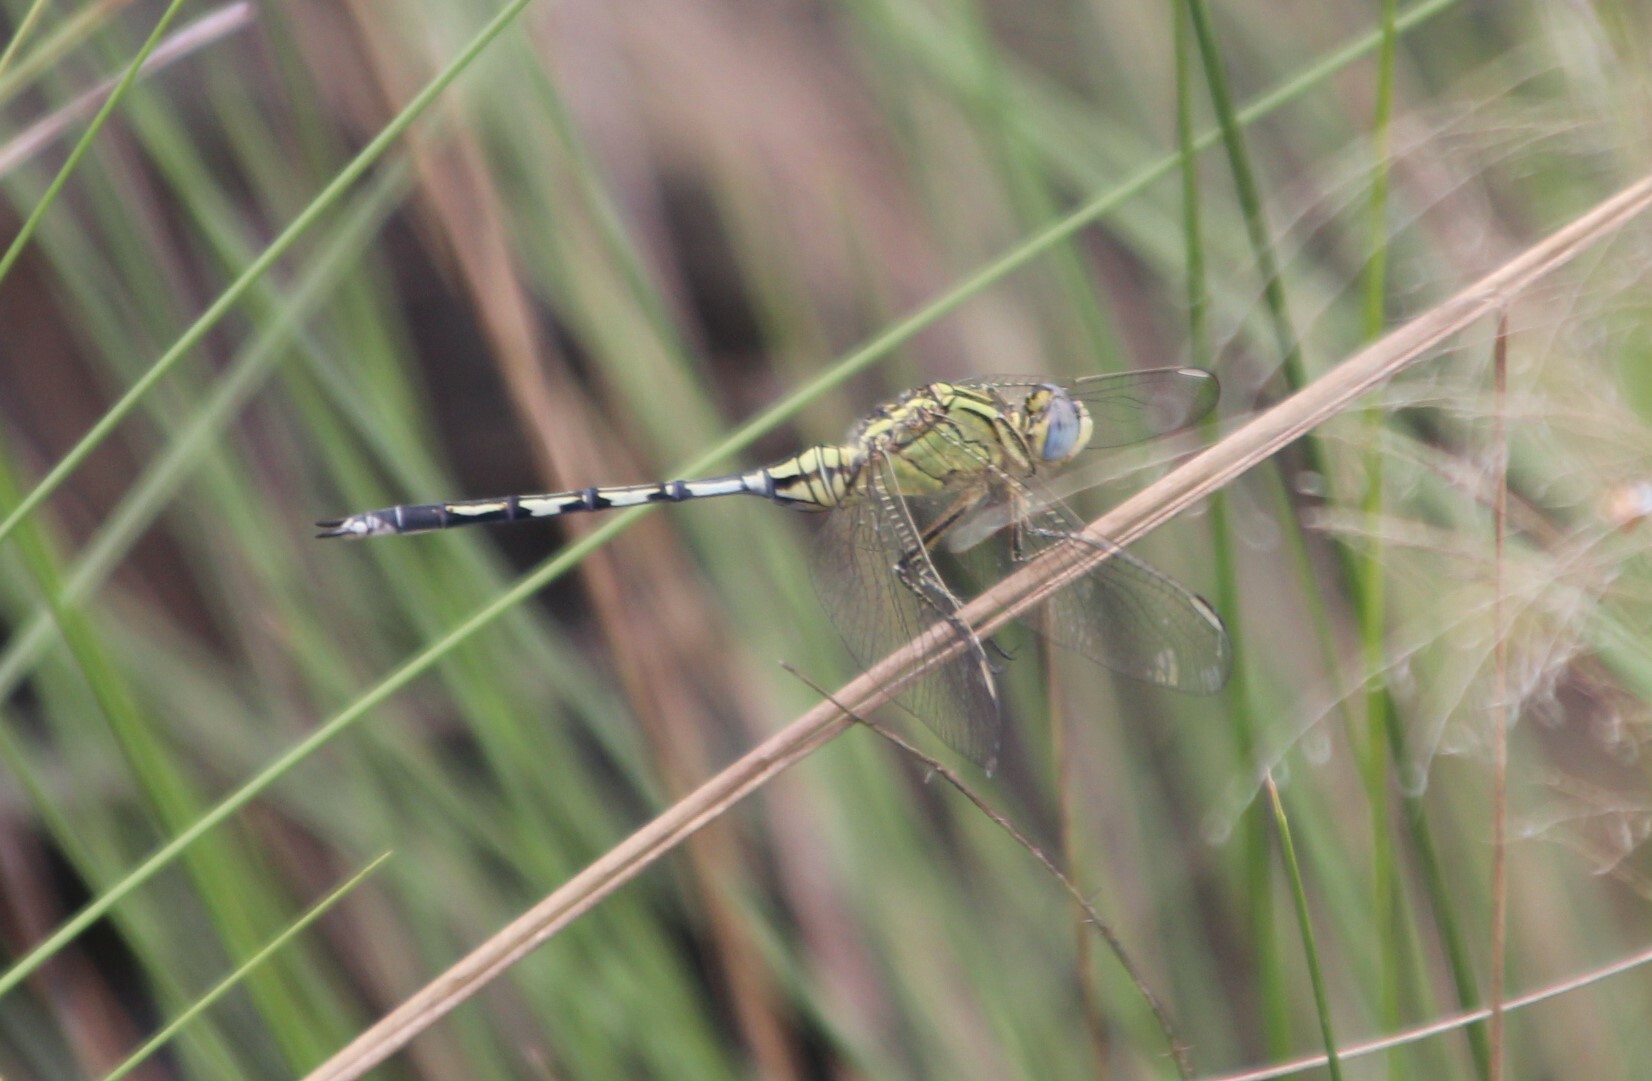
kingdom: Animalia
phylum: Arthropoda
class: Insecta
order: Odonata
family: Libellulidae
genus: Orthetrum
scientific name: Orthetrum trinacria
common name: Long skimmer
